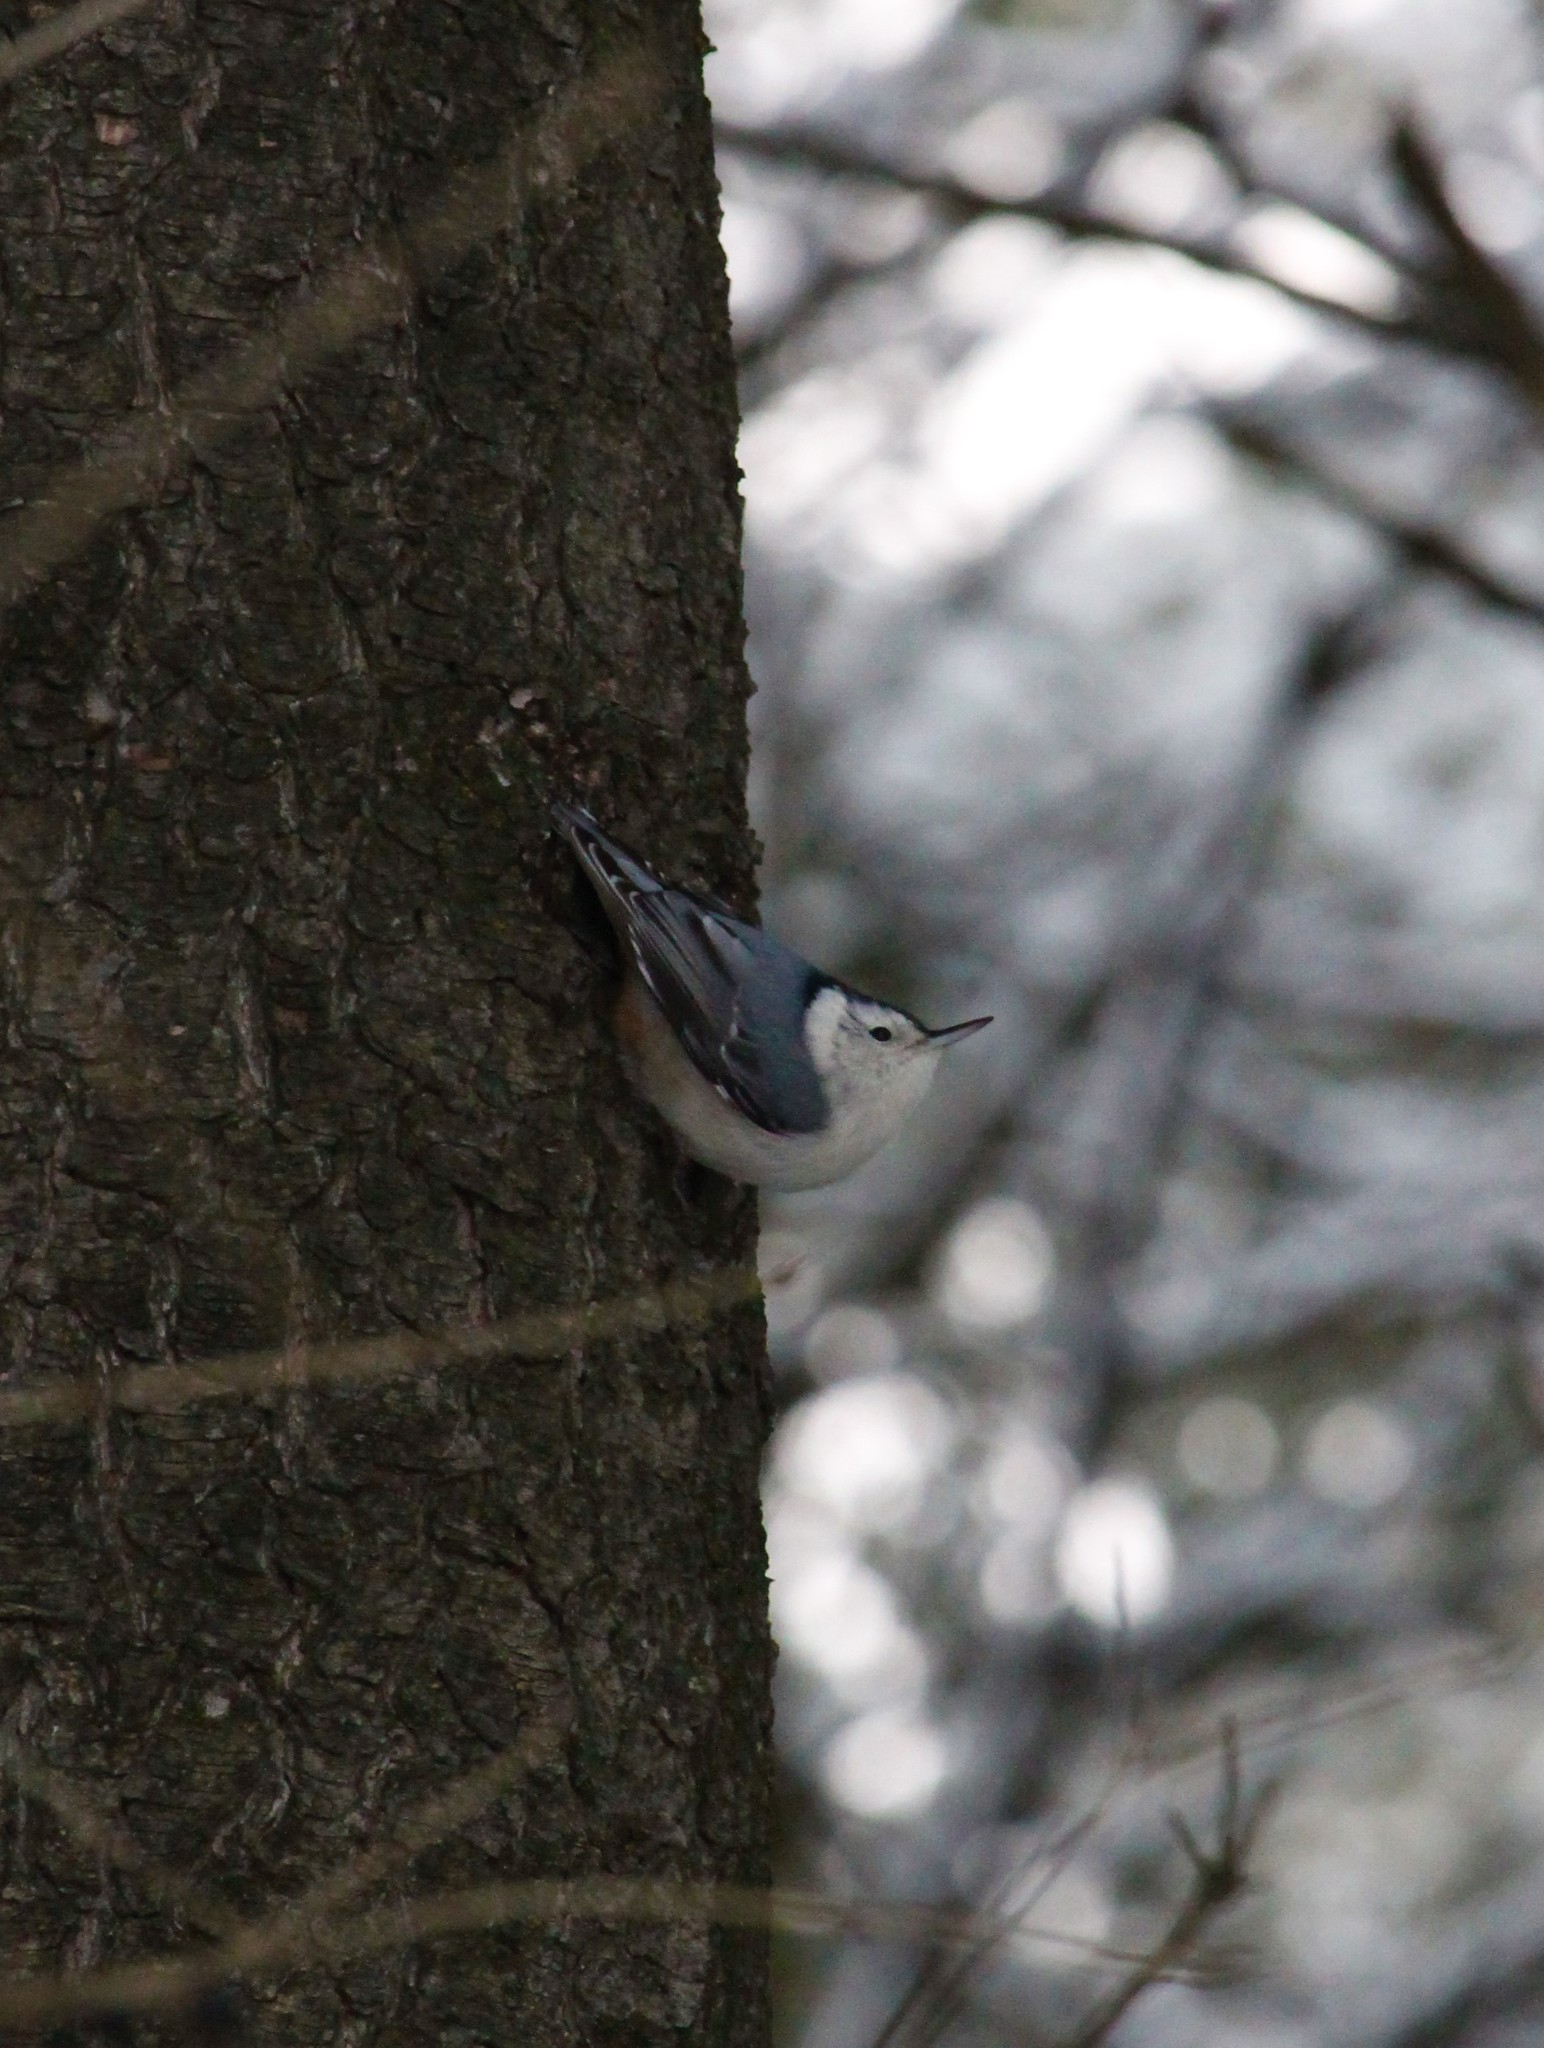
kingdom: Animalia
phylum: Chordata
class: Aves
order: Passeriformes
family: Sittidae
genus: Sitta
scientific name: Sitta carolinensis
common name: White-breasted nuthatch
